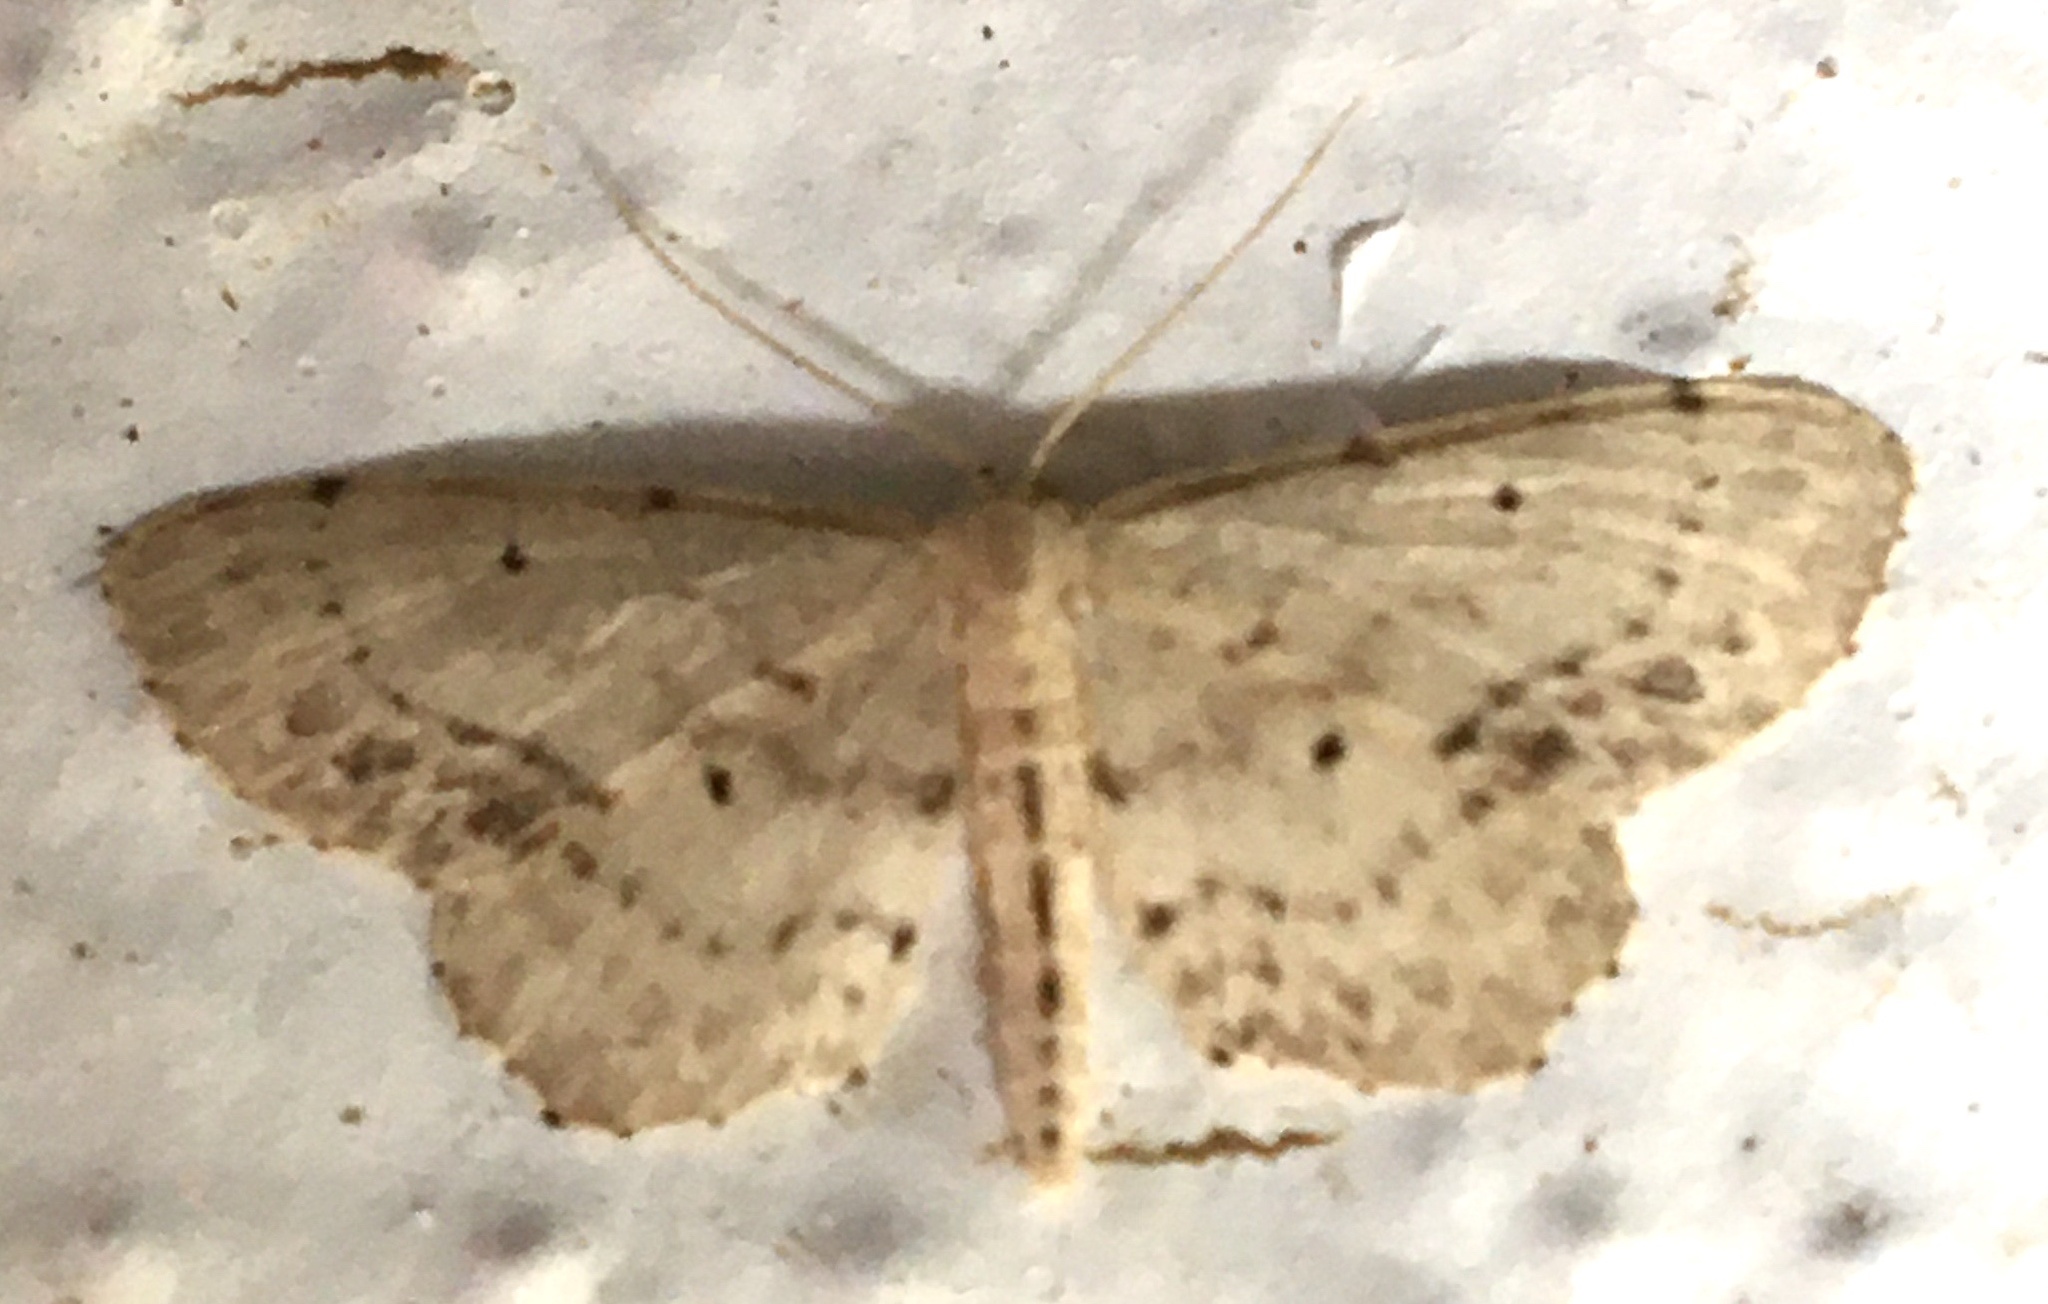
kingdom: Animalia
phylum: Arthropoda
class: Insecta
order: Lepidoptera
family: Geometridae
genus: Idaea
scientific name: Idaea dimidiata
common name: Single-dotted wave
